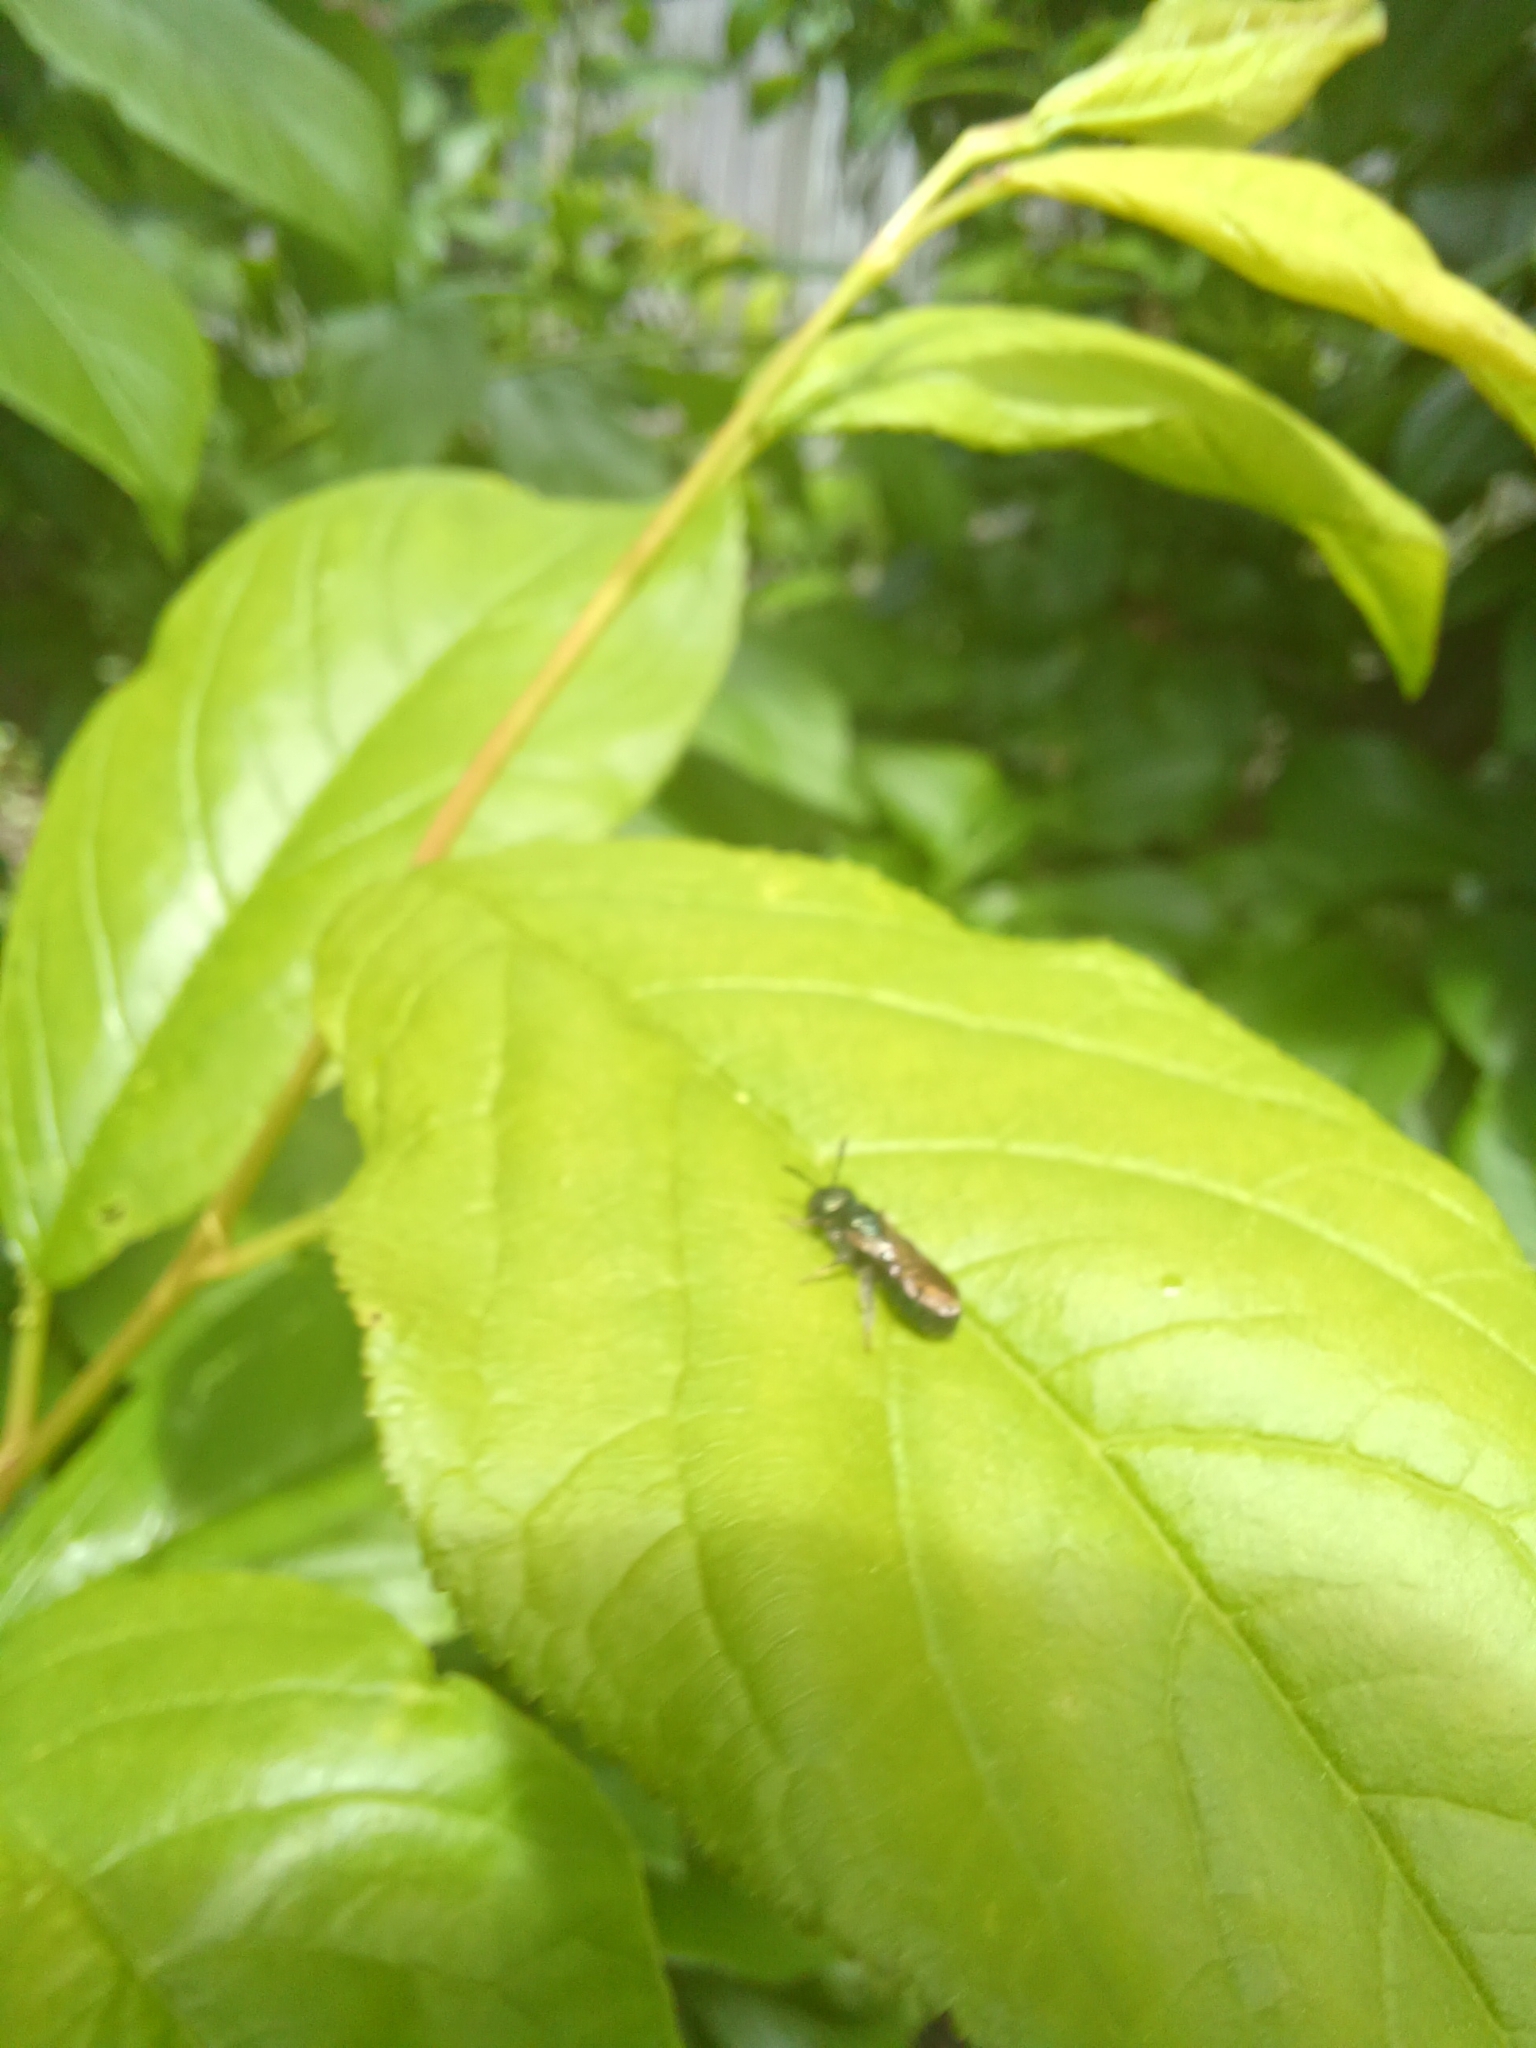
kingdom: Animalia
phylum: Arthropoda
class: Insecta
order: Hymenoptera
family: Apidae
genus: Zadontomerus
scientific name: Zadontomerus
